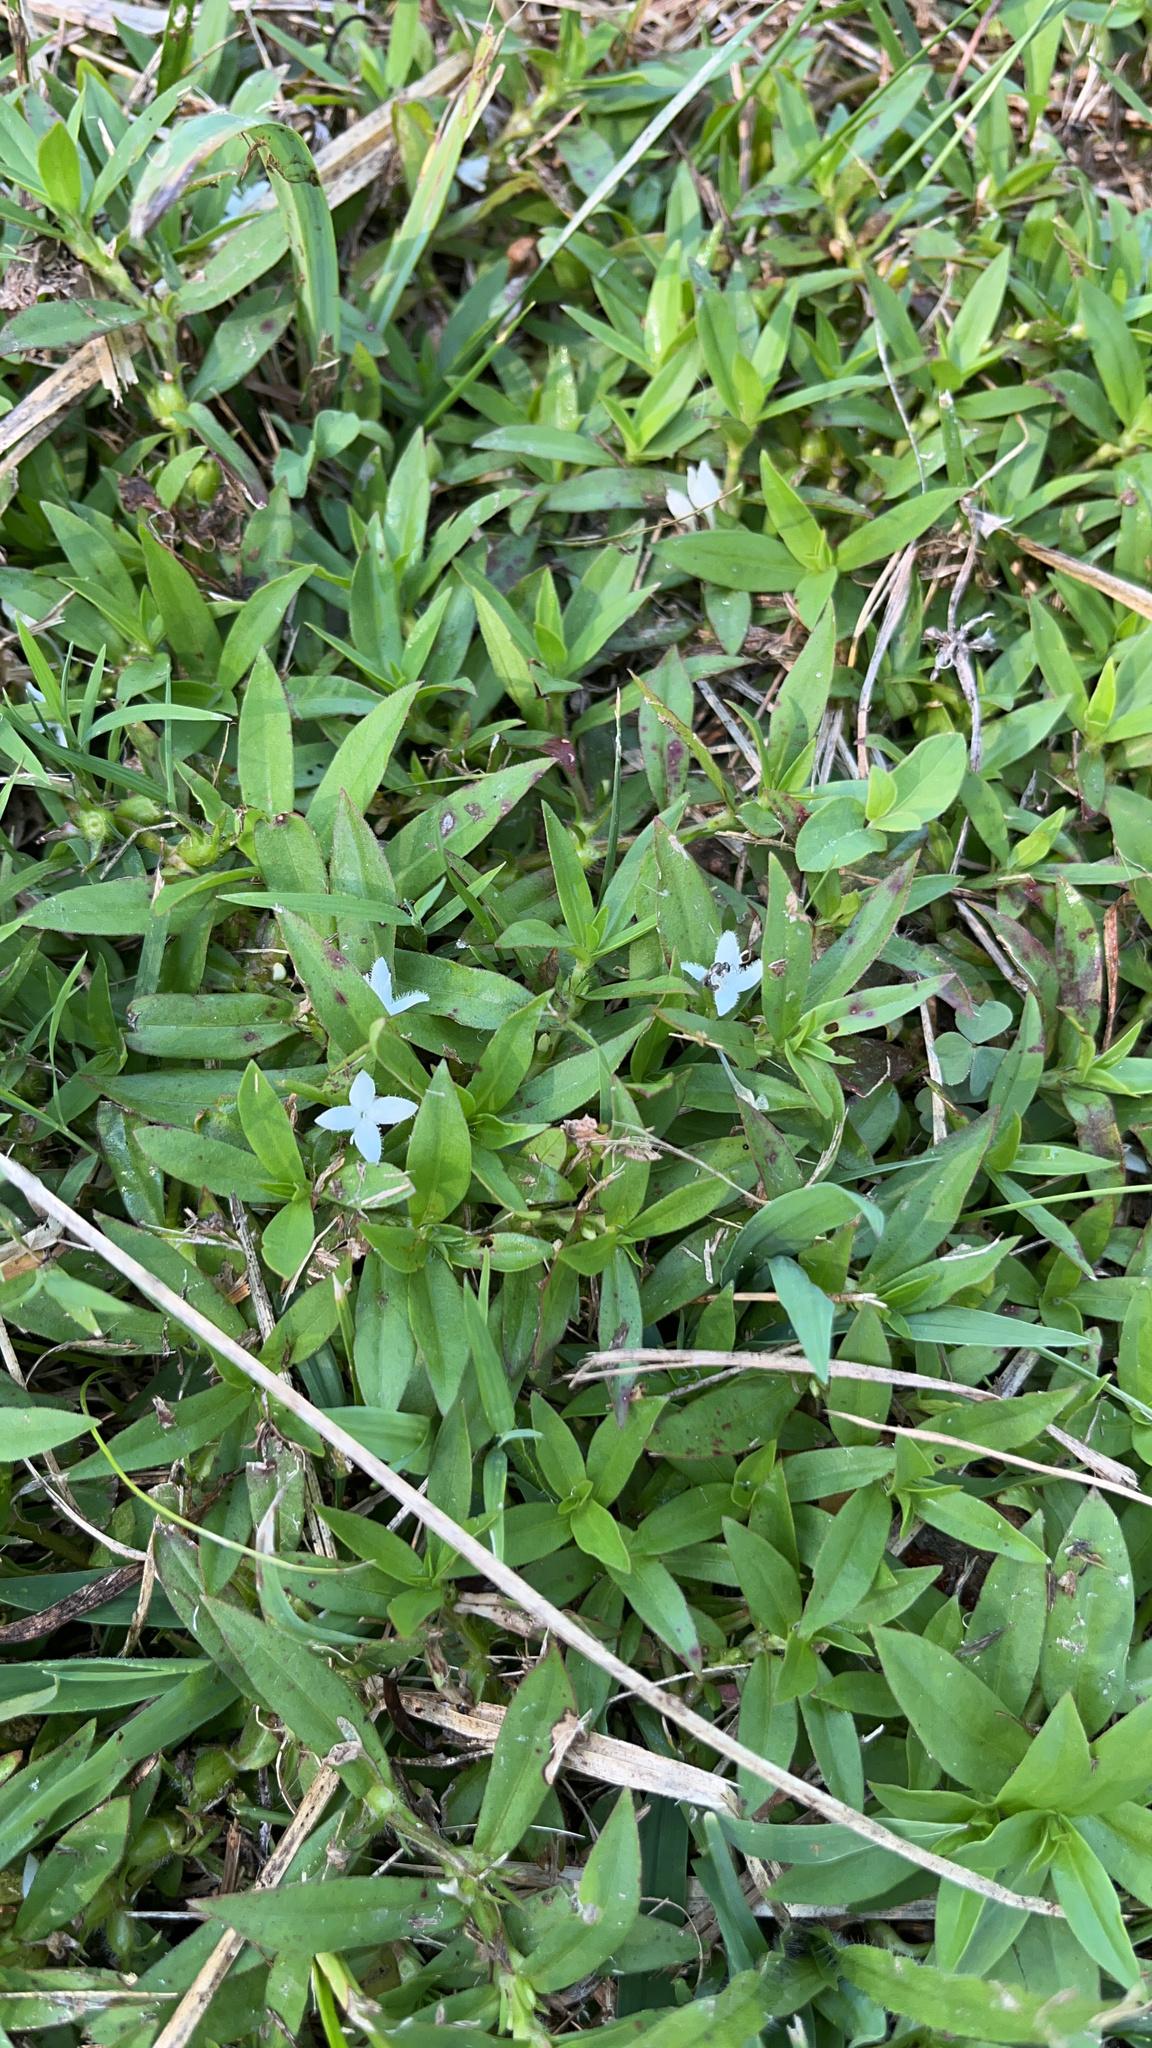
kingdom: Plantae
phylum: Tracheophyta
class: Magnoliopsida
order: Gentianales
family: Rubiaceae
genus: Diodia
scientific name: Diodia virginiana
